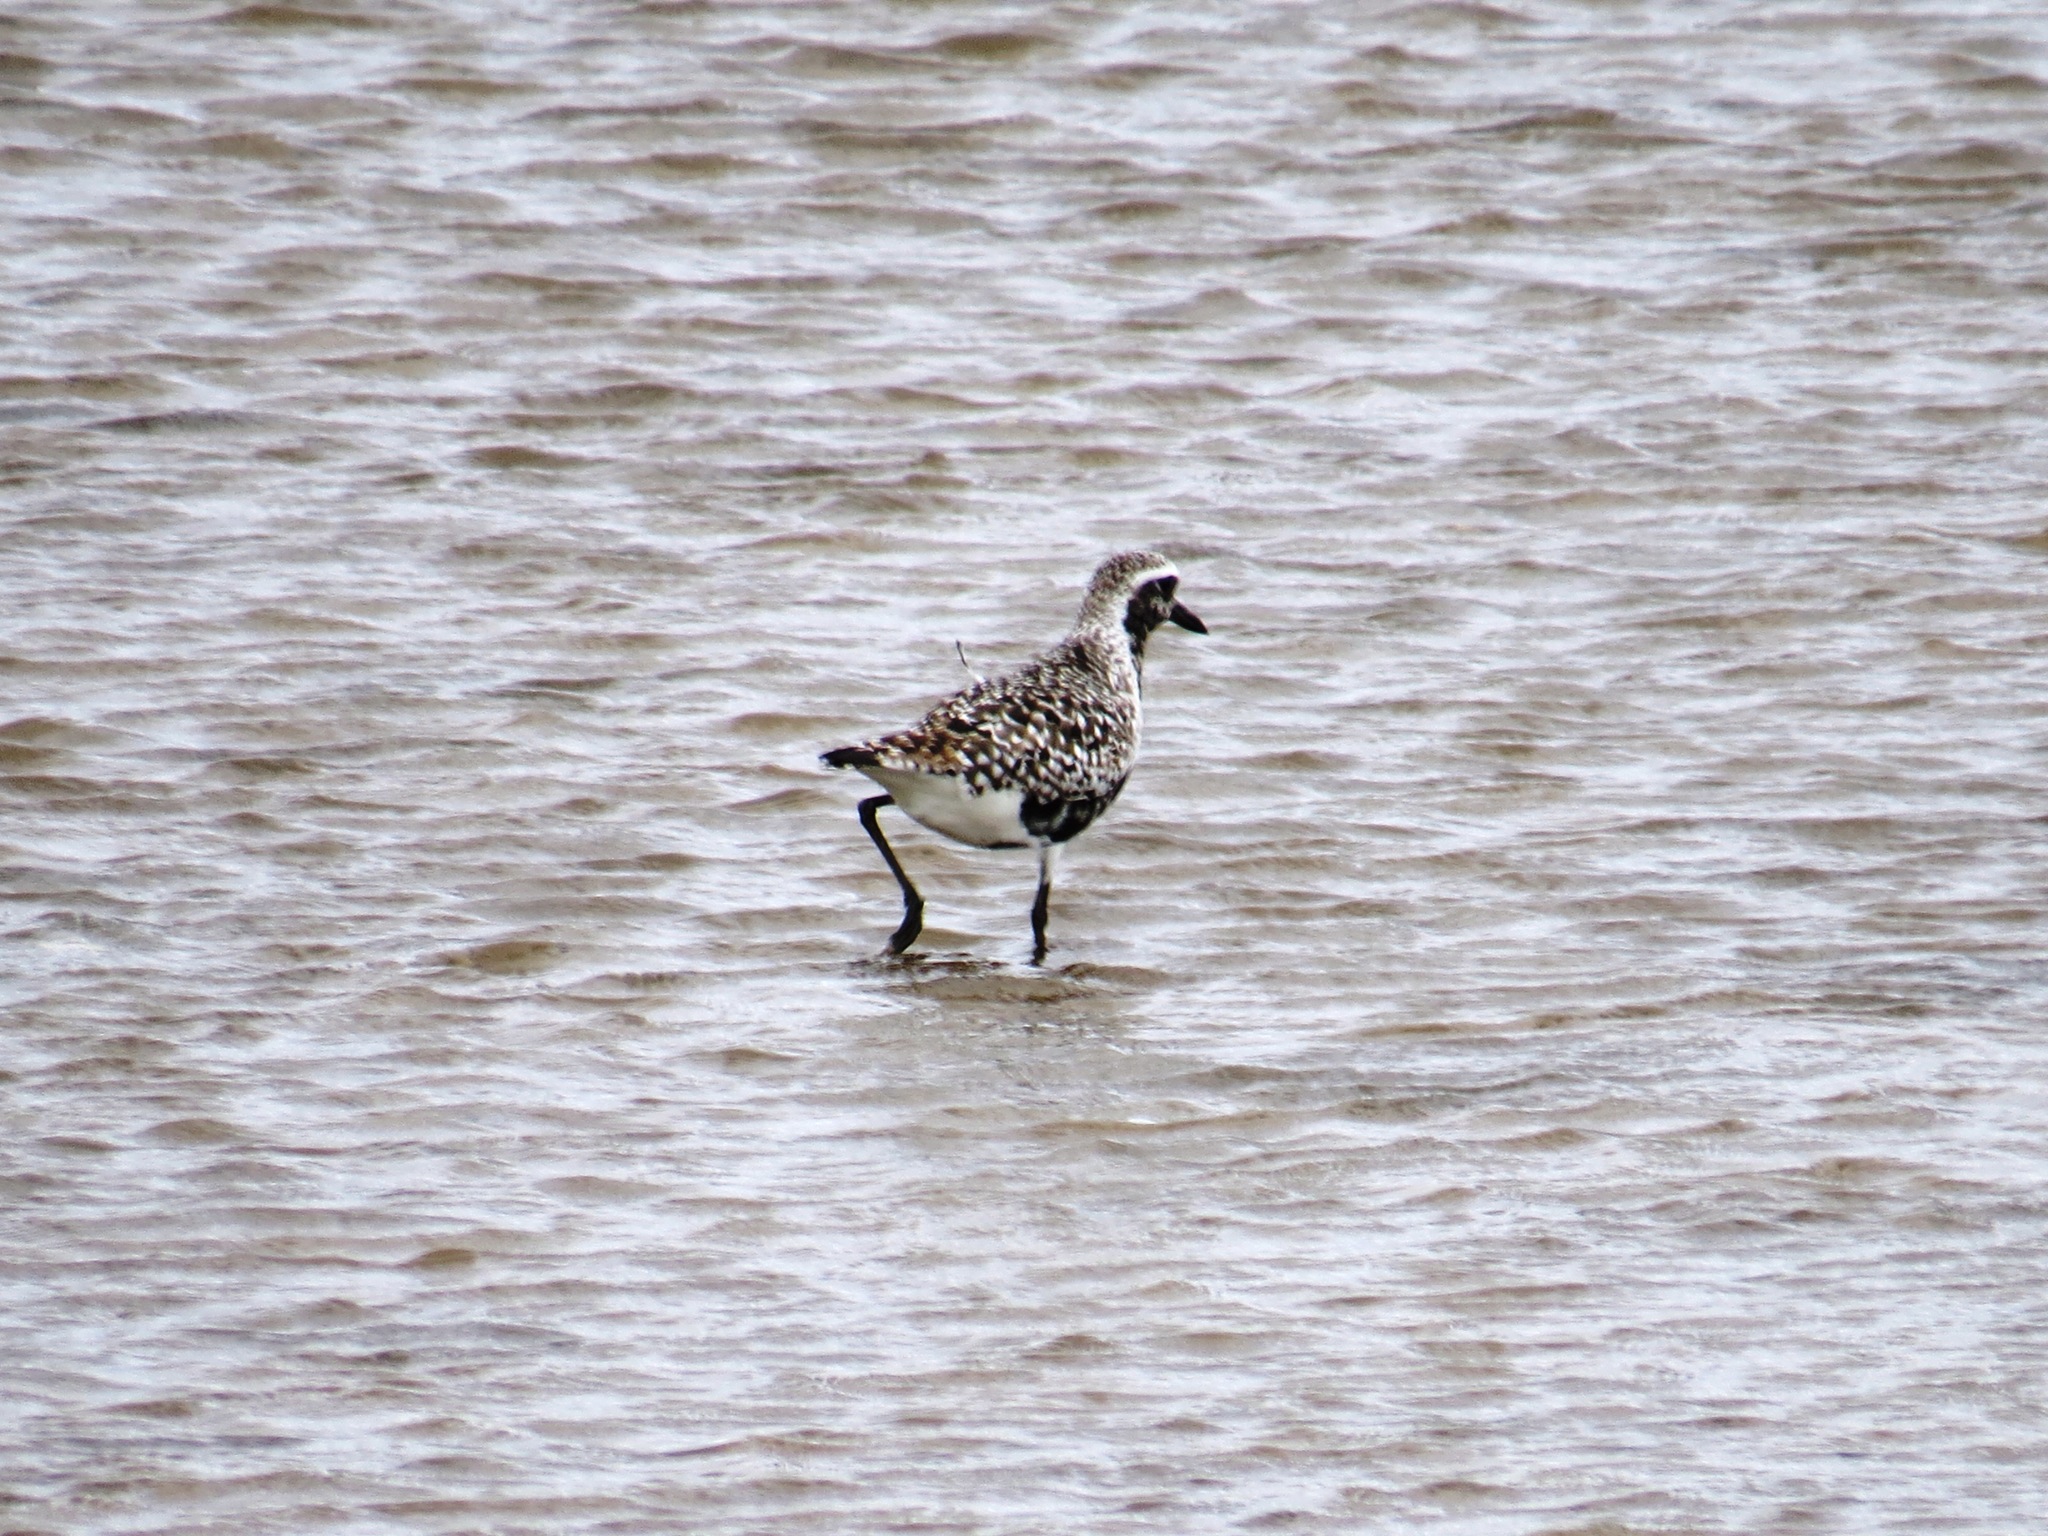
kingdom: Animalia
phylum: Chordata
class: Aves
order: Charadriiformes
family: Charadriidae
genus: Pluvialis
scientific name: Pluvialis squatarola
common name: Grey plover
